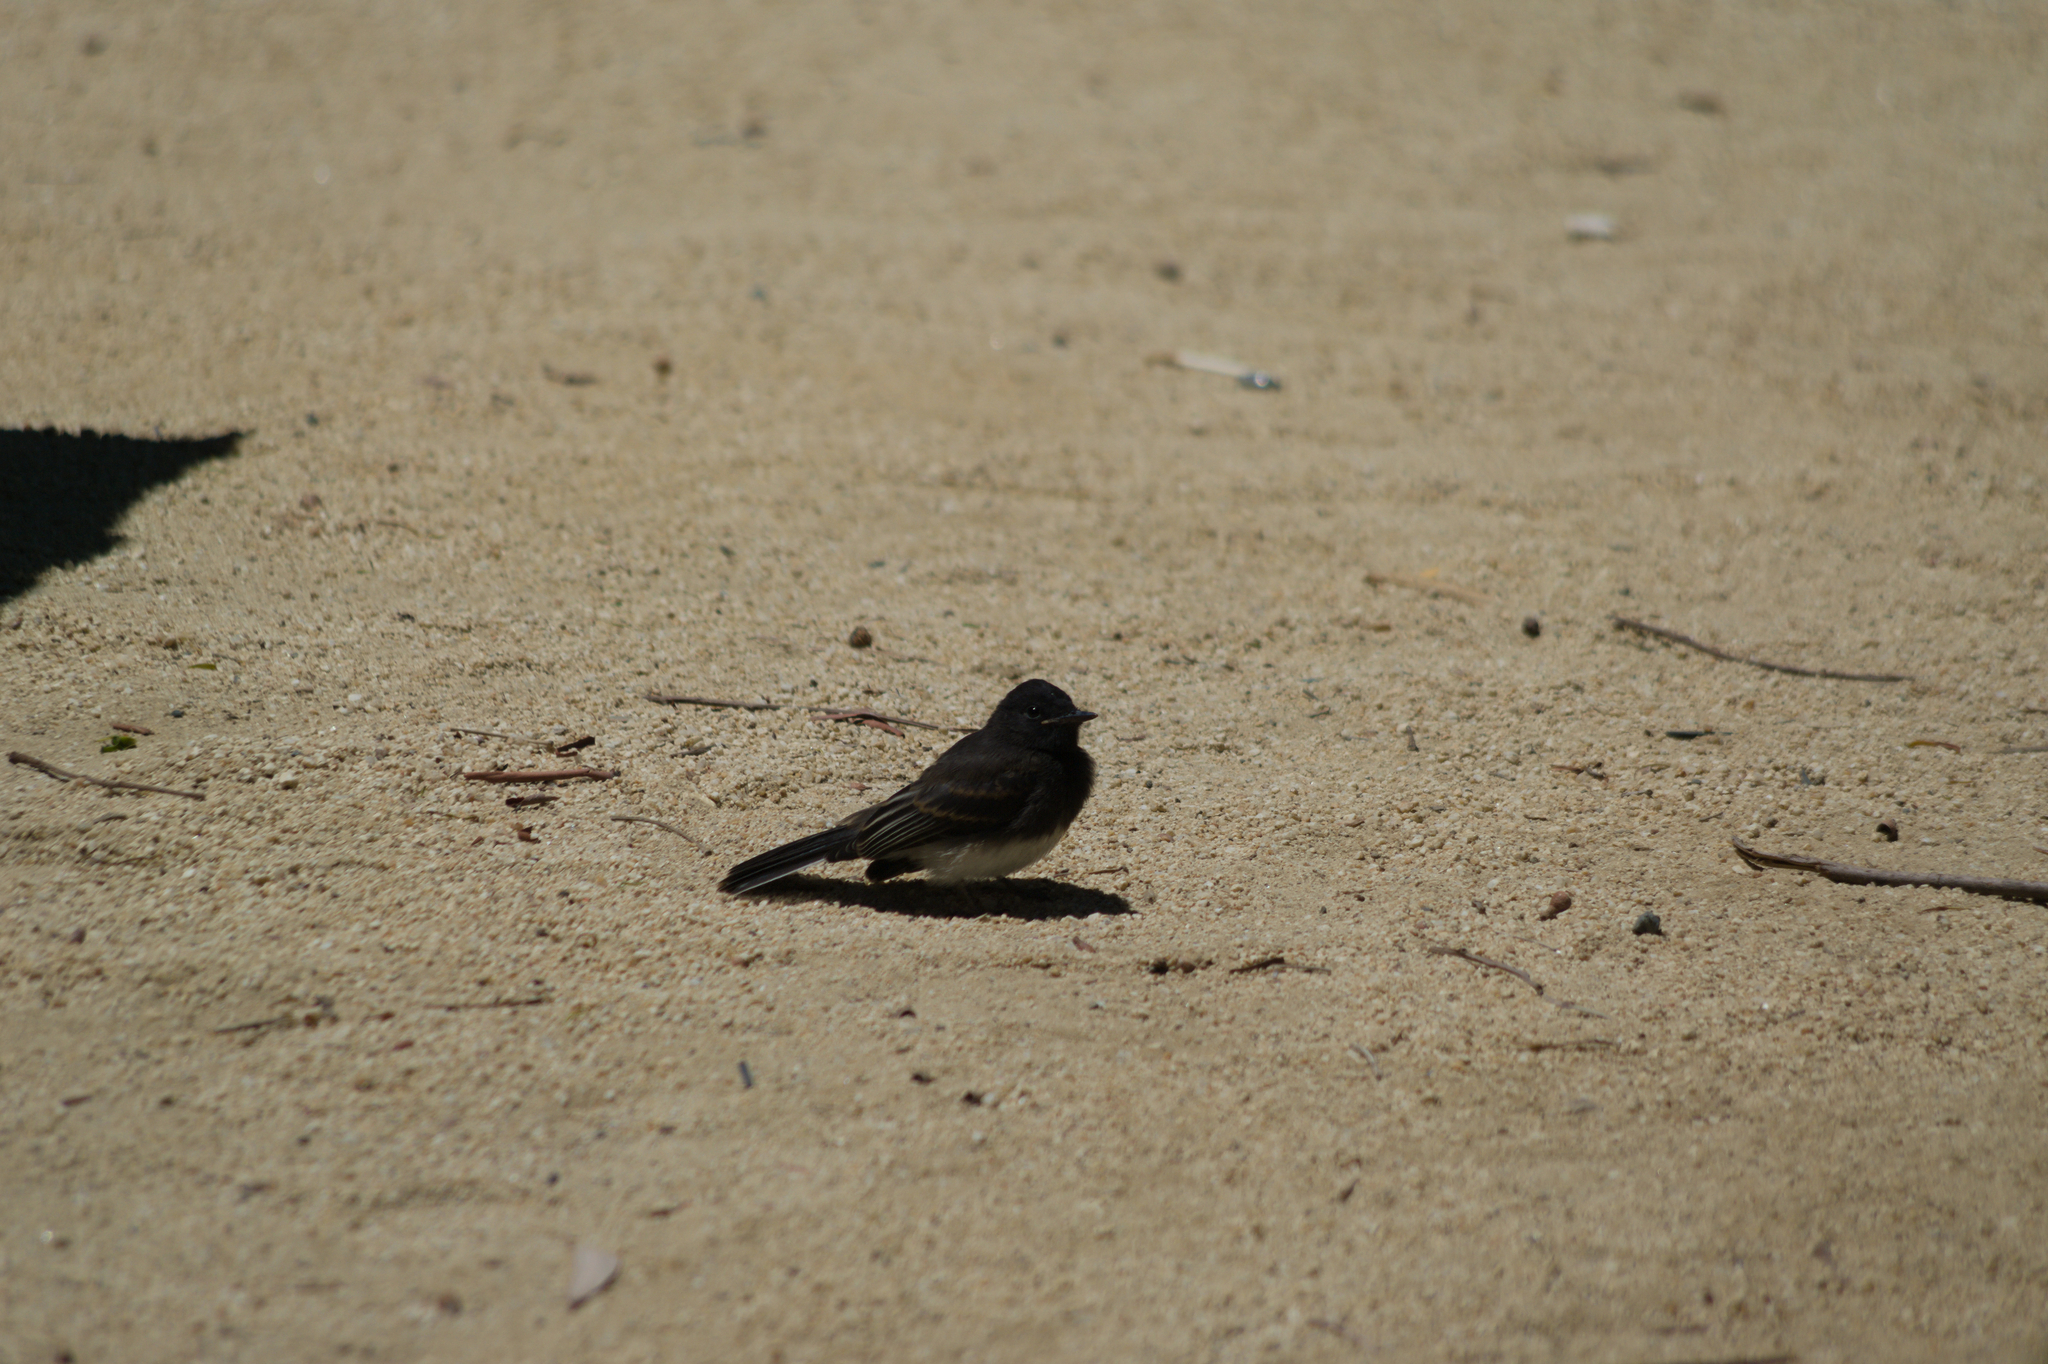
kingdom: Animalia
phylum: Chordata
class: Aves
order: Passeriformes
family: Tyrannidae
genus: Sayornis
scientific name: Sayornis nigricans
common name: Black phoebe
